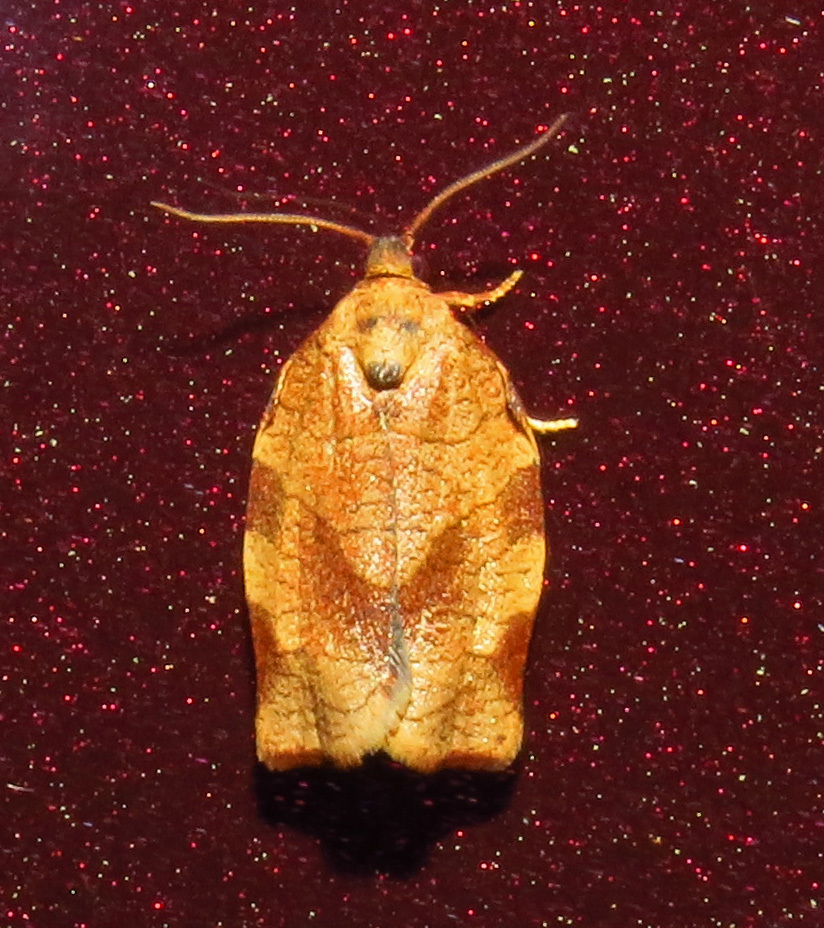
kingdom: Animalia
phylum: Arthropoda
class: Insecta
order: Lepidoptera
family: Tortricidae
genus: Choristoneura
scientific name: Choristoneura rosaceana
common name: Oblique-banded leafroller moth
